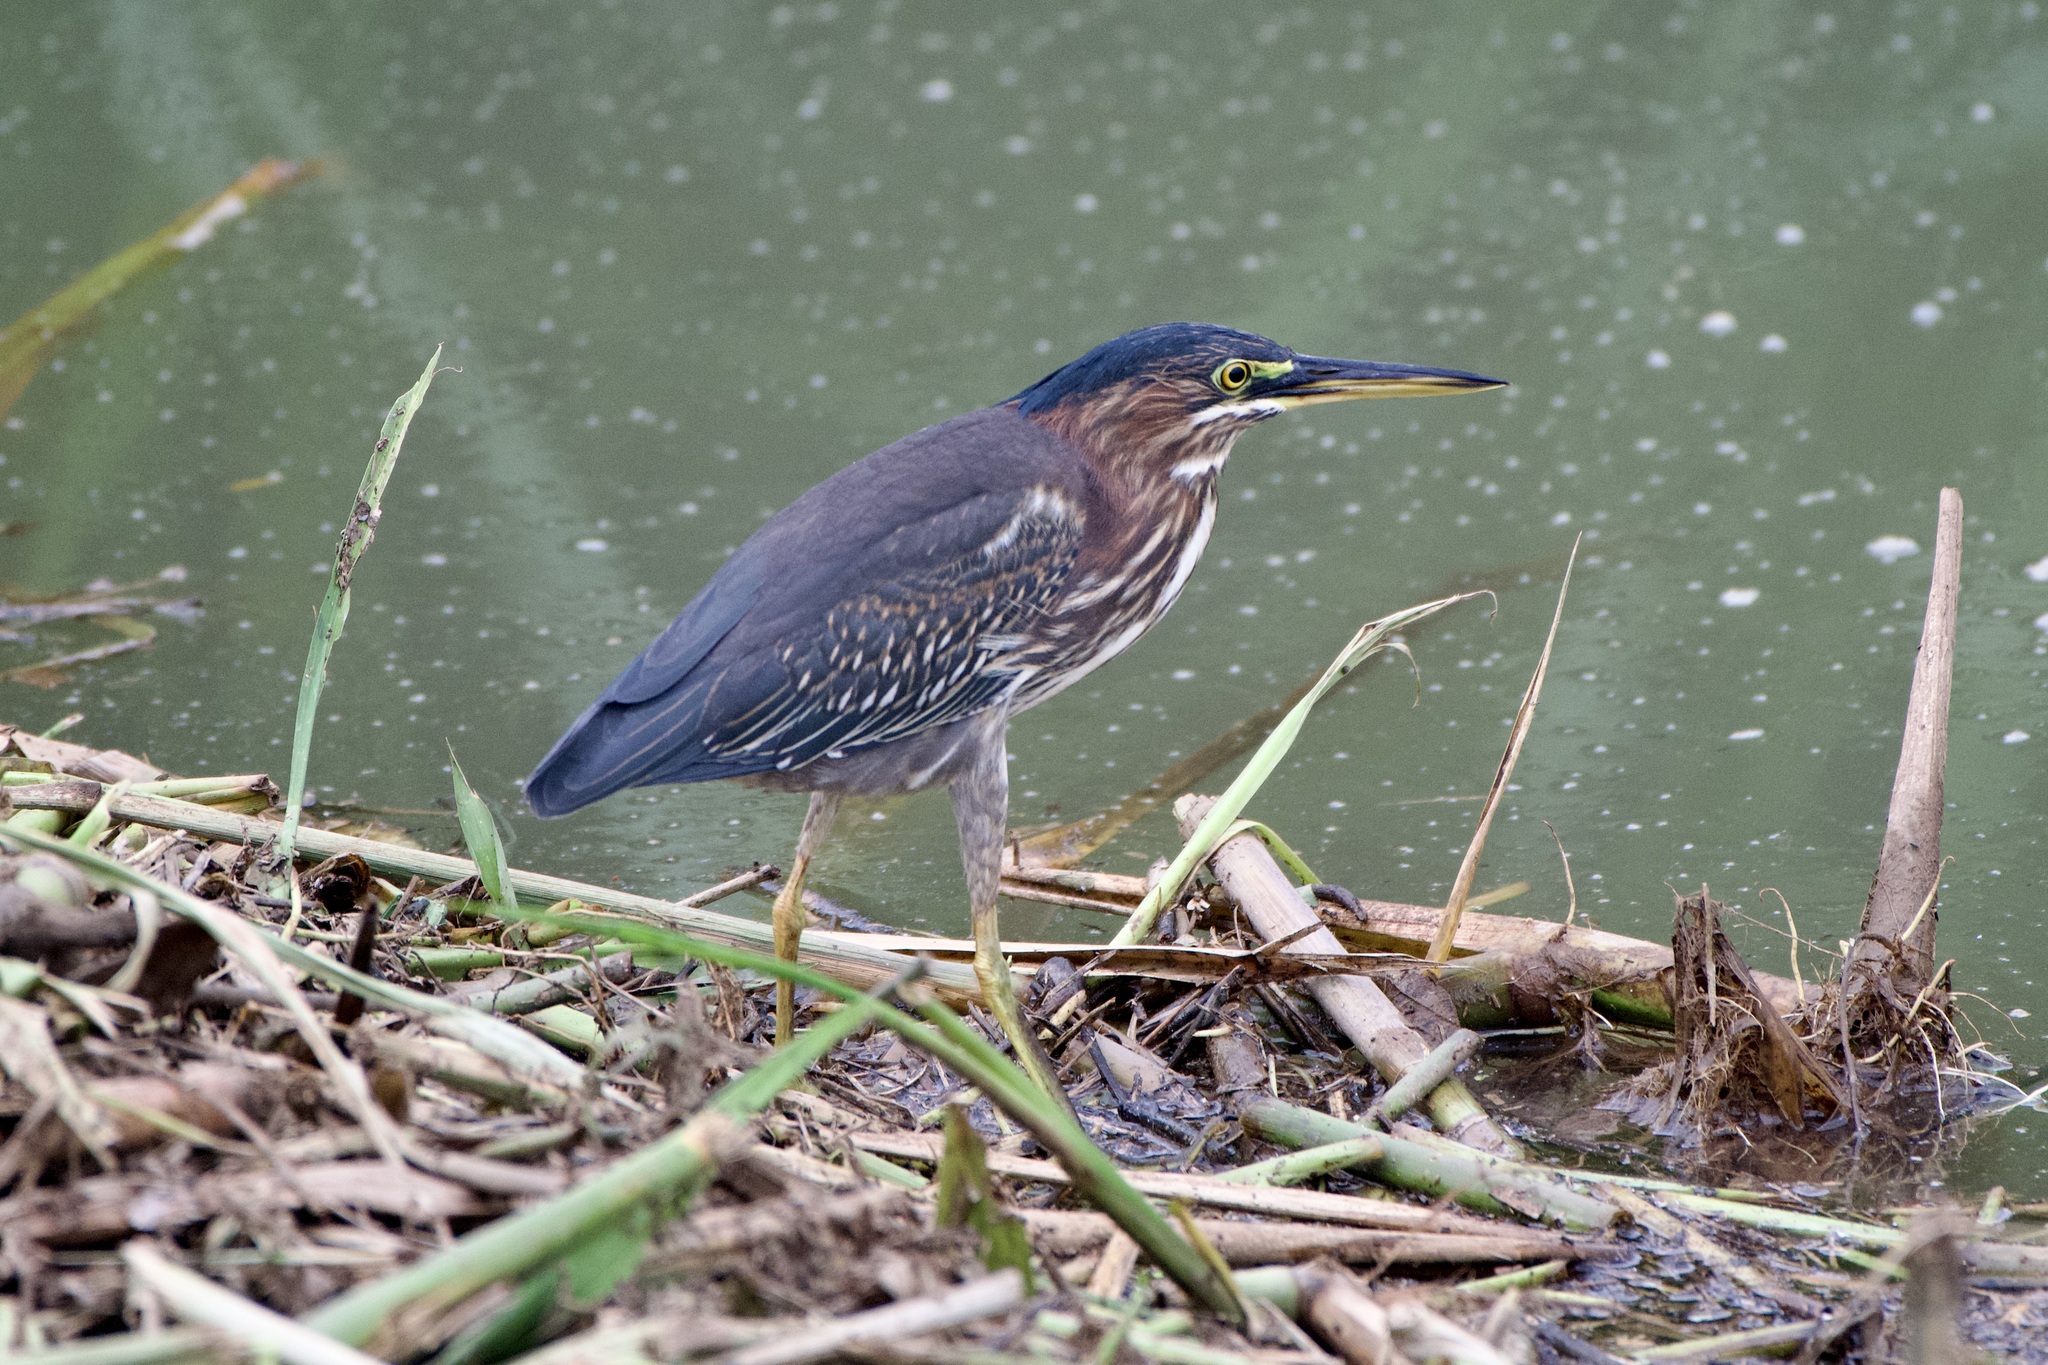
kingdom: Animalia
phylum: Chordata
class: Aves
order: Pelecaniformes
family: Ardeidae
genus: Butorides
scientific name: Butorides virescens
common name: Green heron
